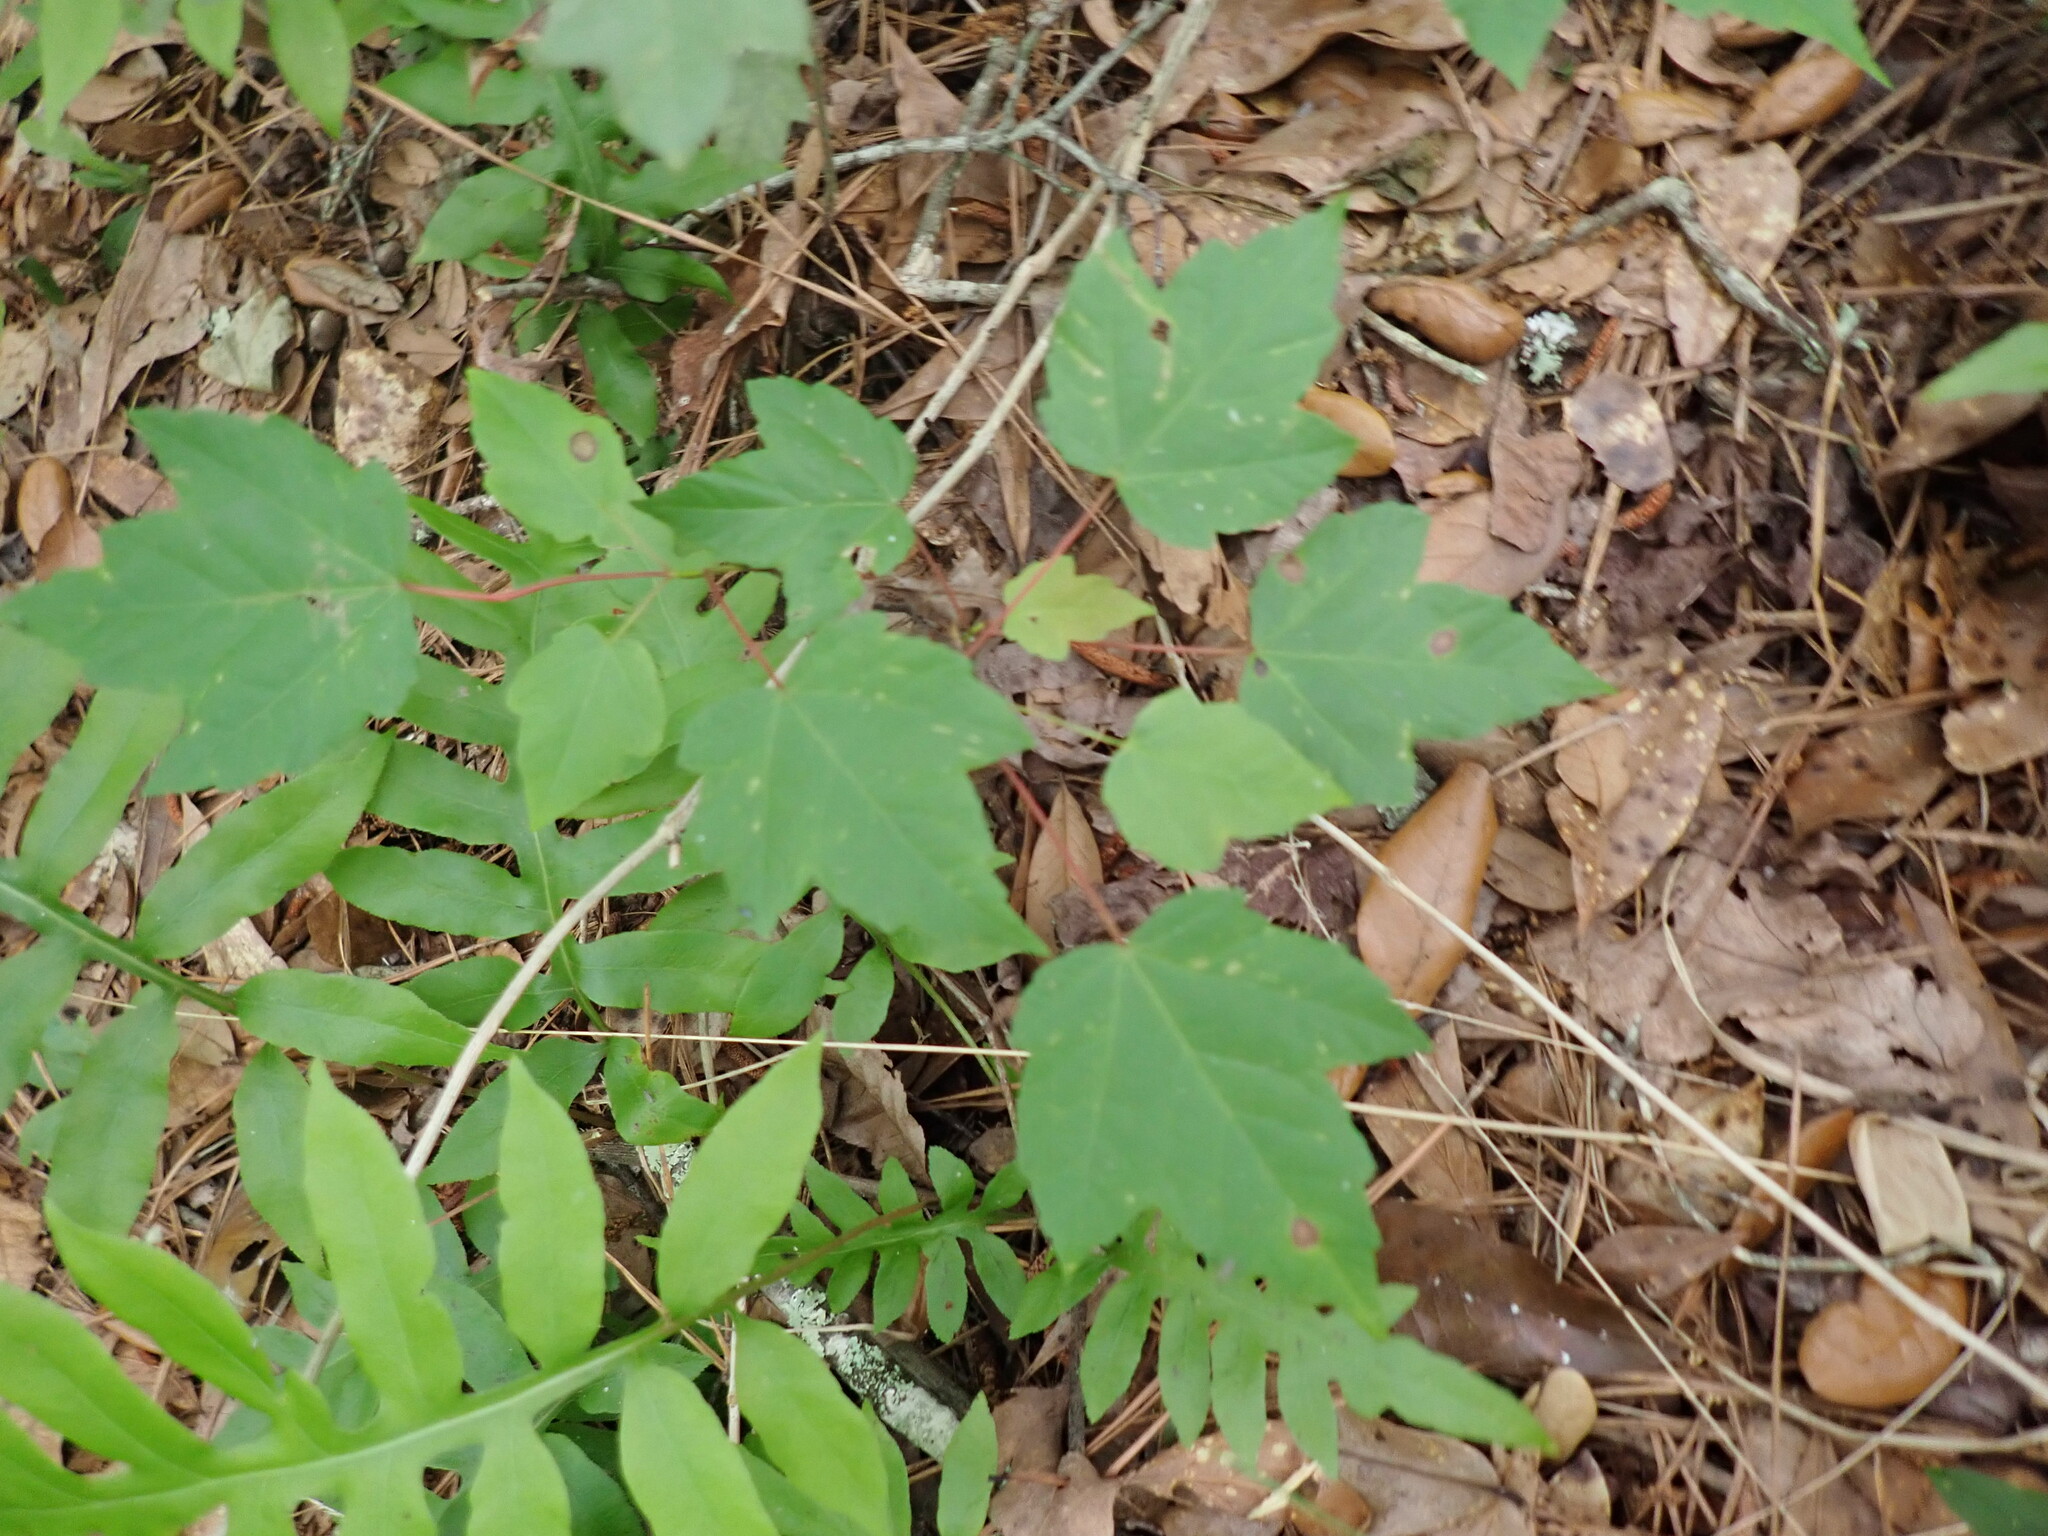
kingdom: Plantae
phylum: Tracheophyta
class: Magnoliopsida
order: Sapindales
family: Sapindaceae
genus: Acer
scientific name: Acer rubrum
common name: Red maple
